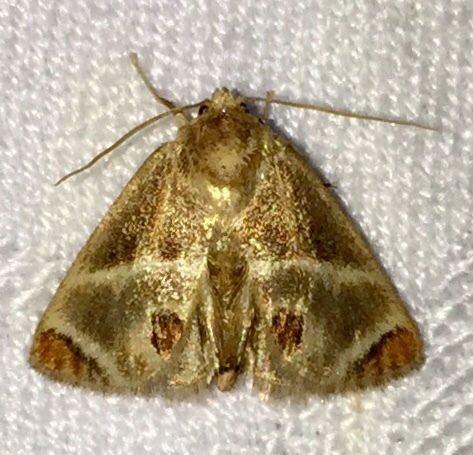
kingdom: Animalia
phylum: Arthropoda
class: Insecta
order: Lepidoptera
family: Limacodidae
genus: Apoda
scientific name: Apoda biguttata
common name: Shagreened slug moth
